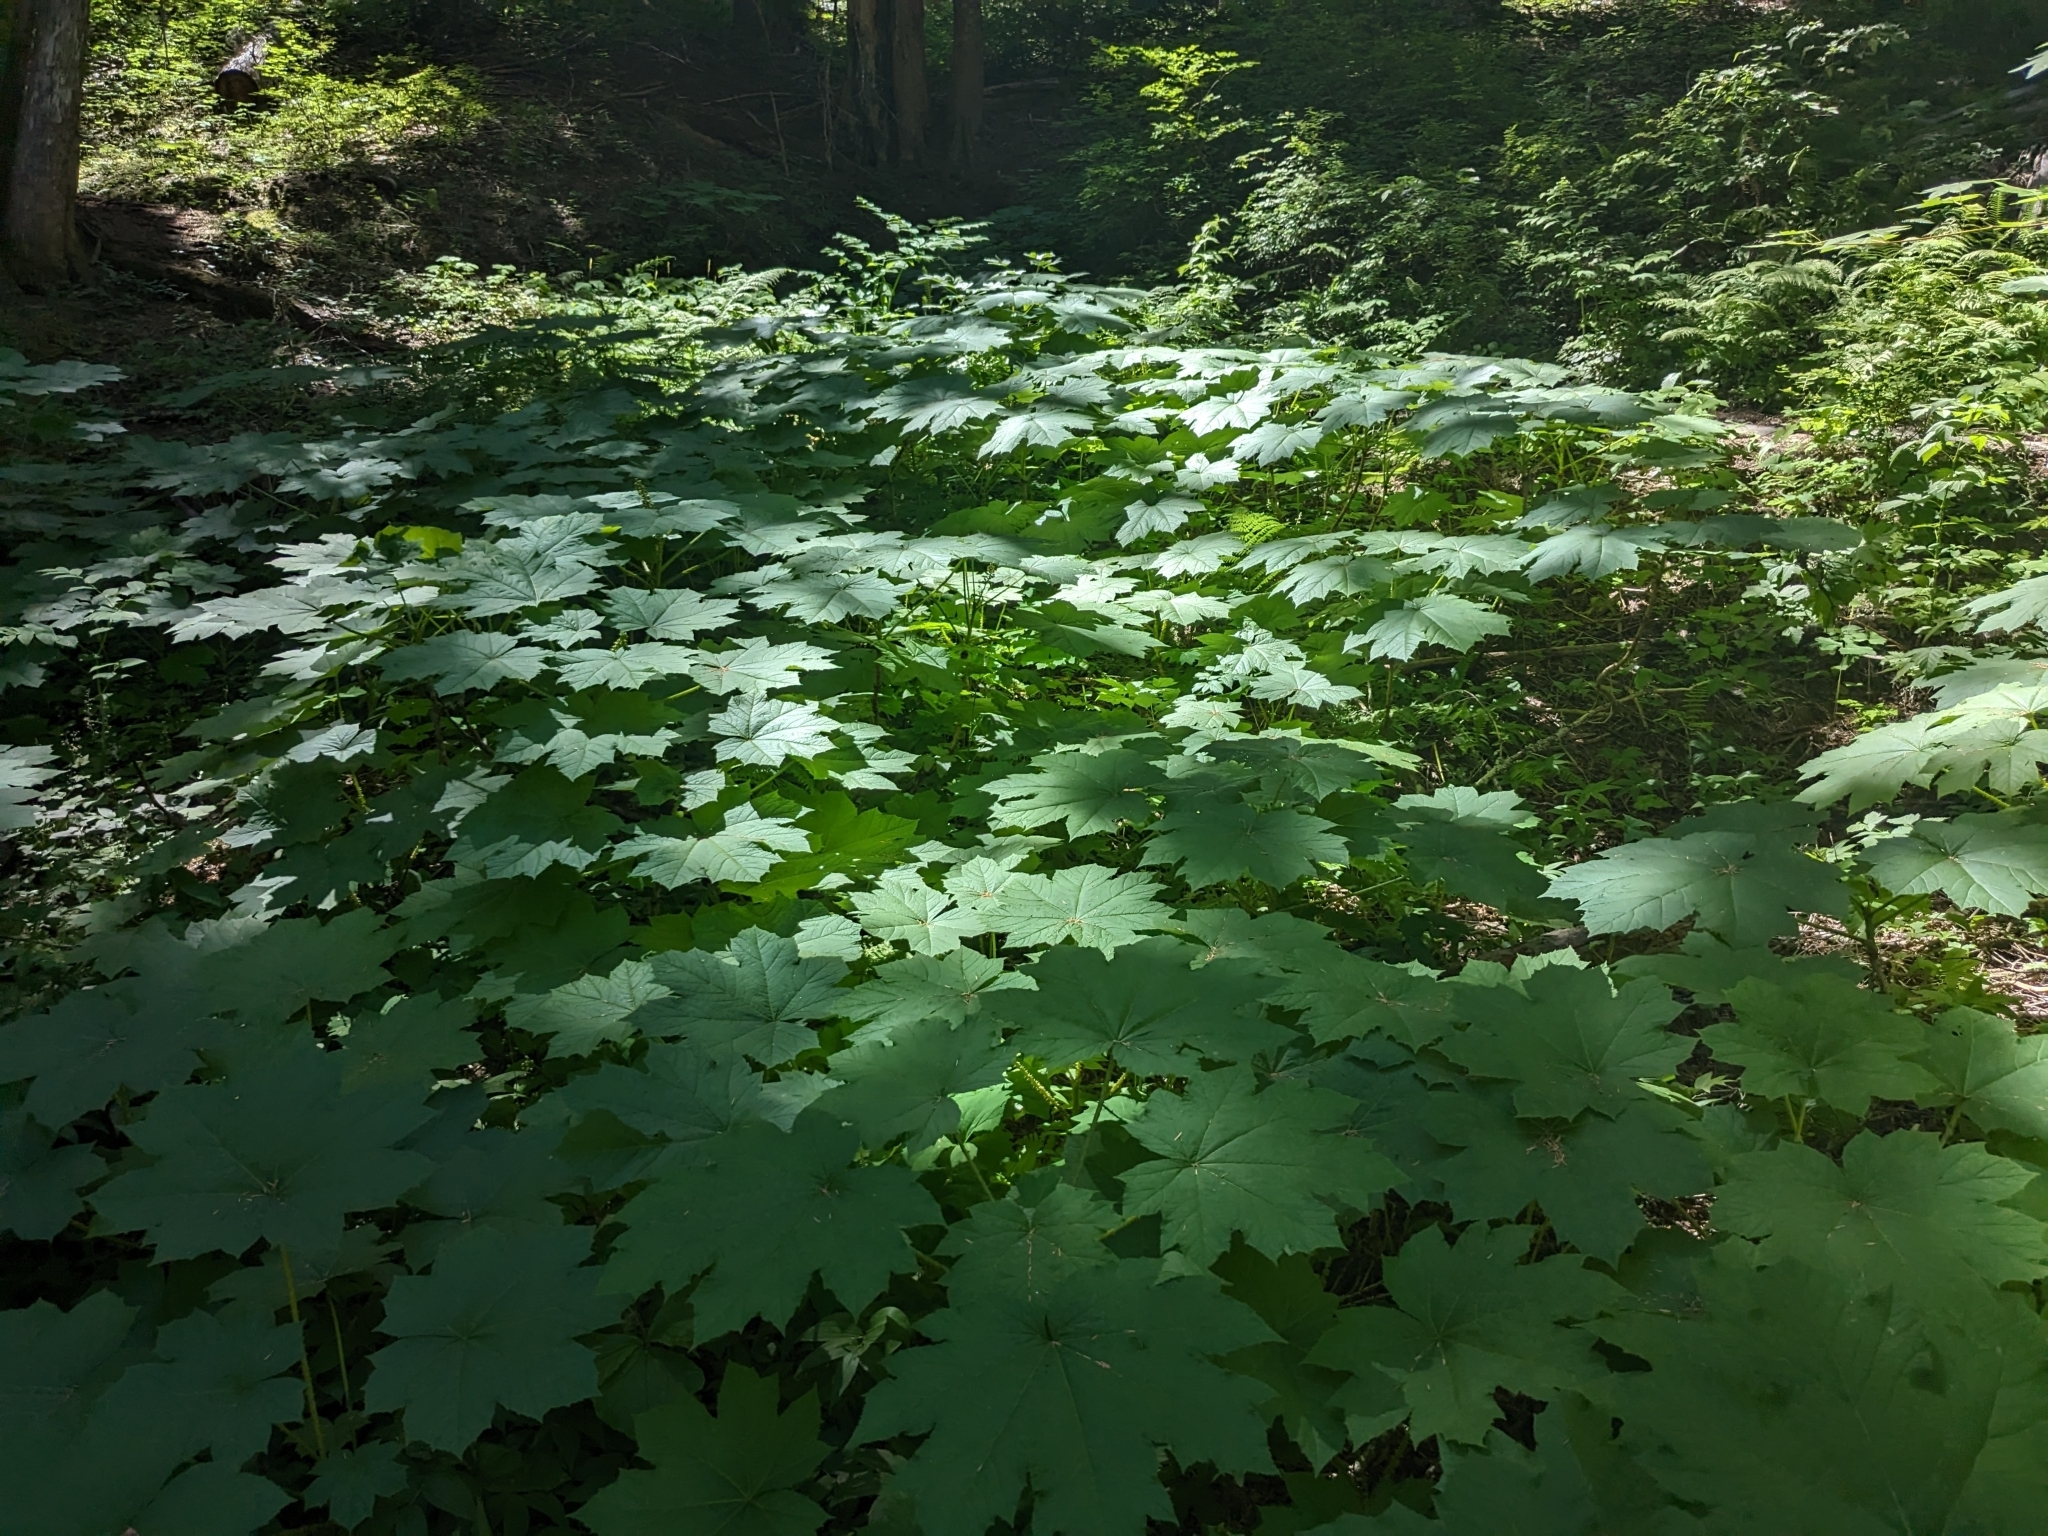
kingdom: Plantae
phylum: Tracheophyta
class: Magnoliopsida
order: Apiales
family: Araliaceae
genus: Oplopanax
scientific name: Oplopanax horridus
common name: Devil's walking-stick
